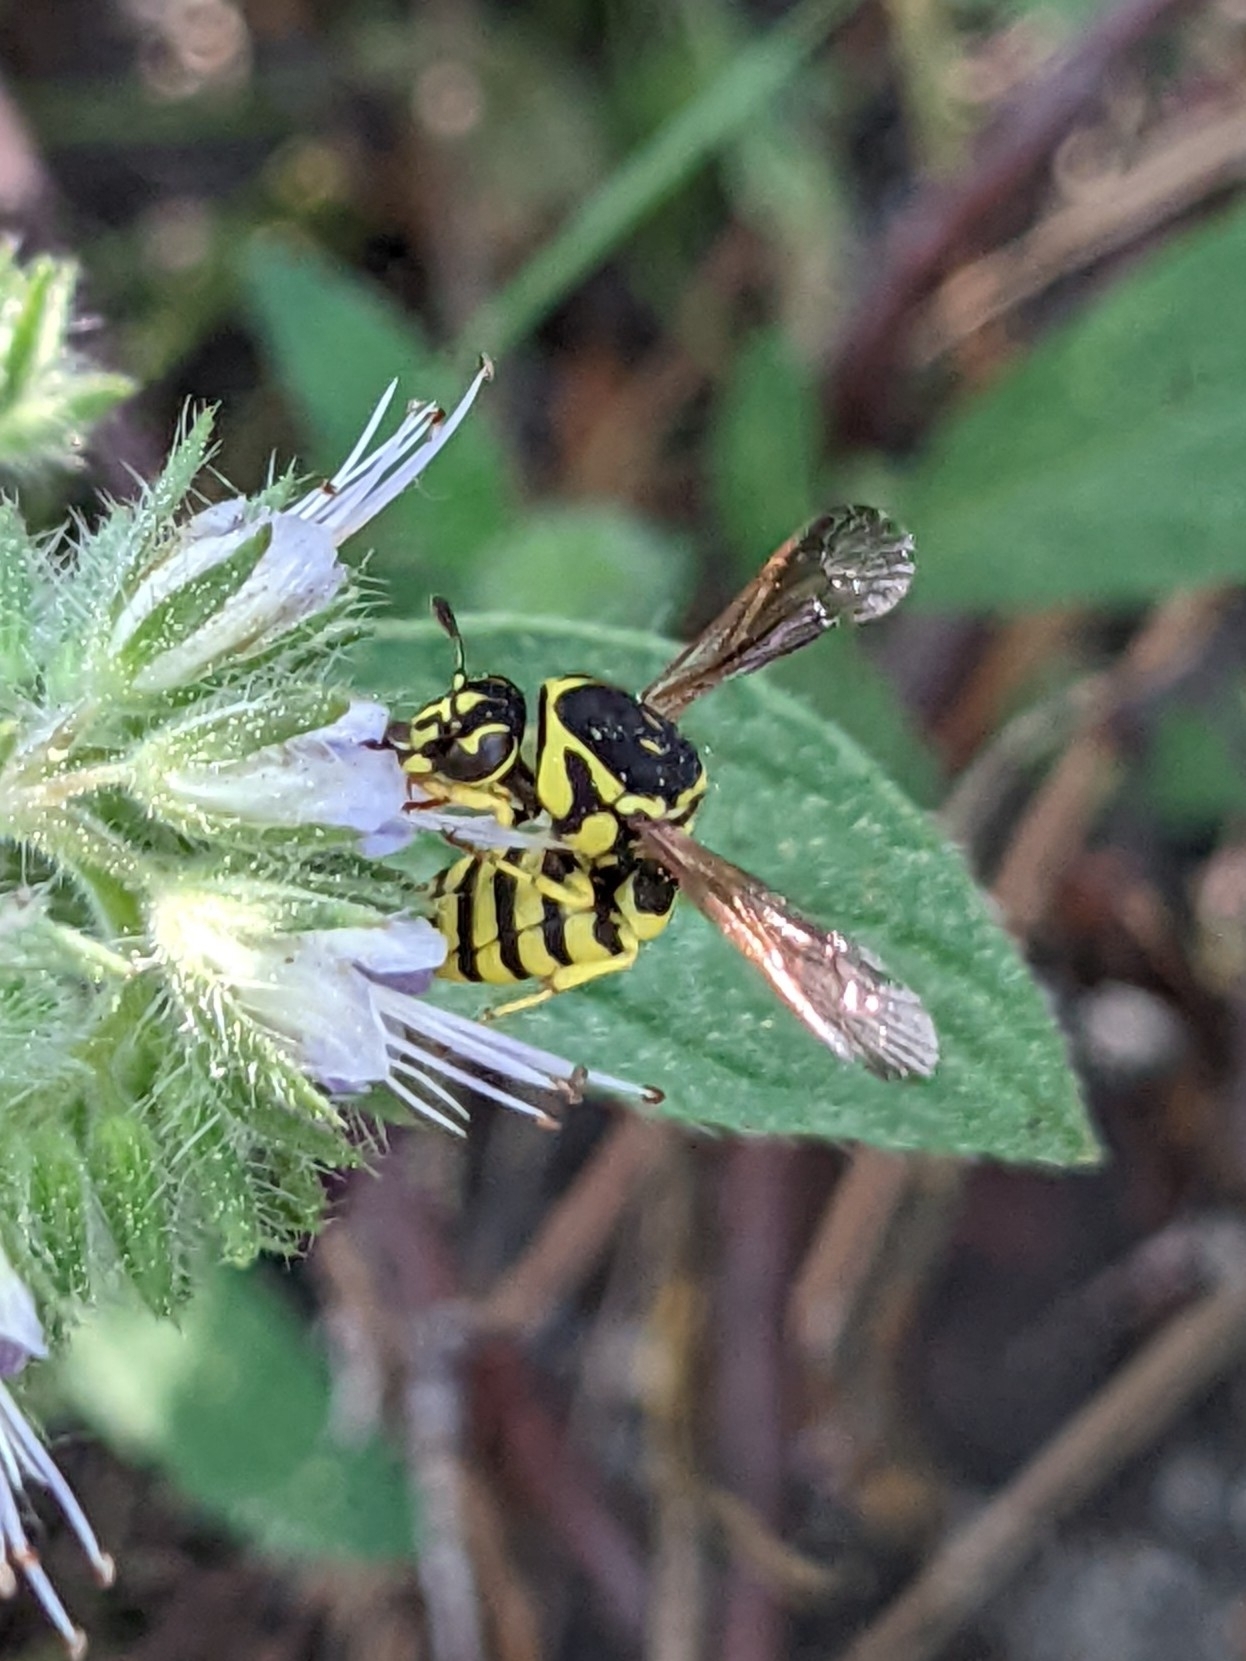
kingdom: Animalia
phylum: Arthropoda
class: Insecta
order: Hymenoptera
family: Masaridae
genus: Pseudomasaris
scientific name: Pseudomasaris edwardsi
